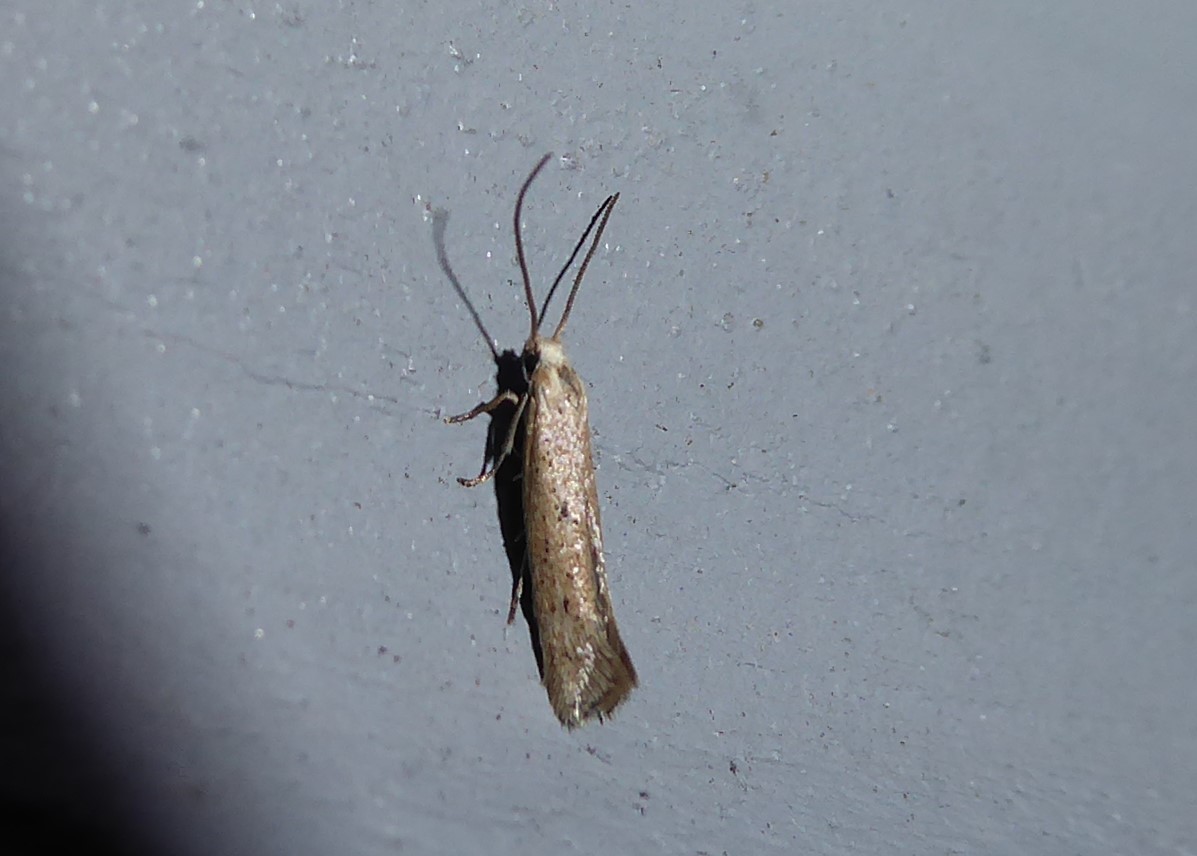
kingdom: Animalia
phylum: Arthropoda
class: Insecta
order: Lepidoptera
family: Elachistidae
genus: Elachista
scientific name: Elachista gerasmia
